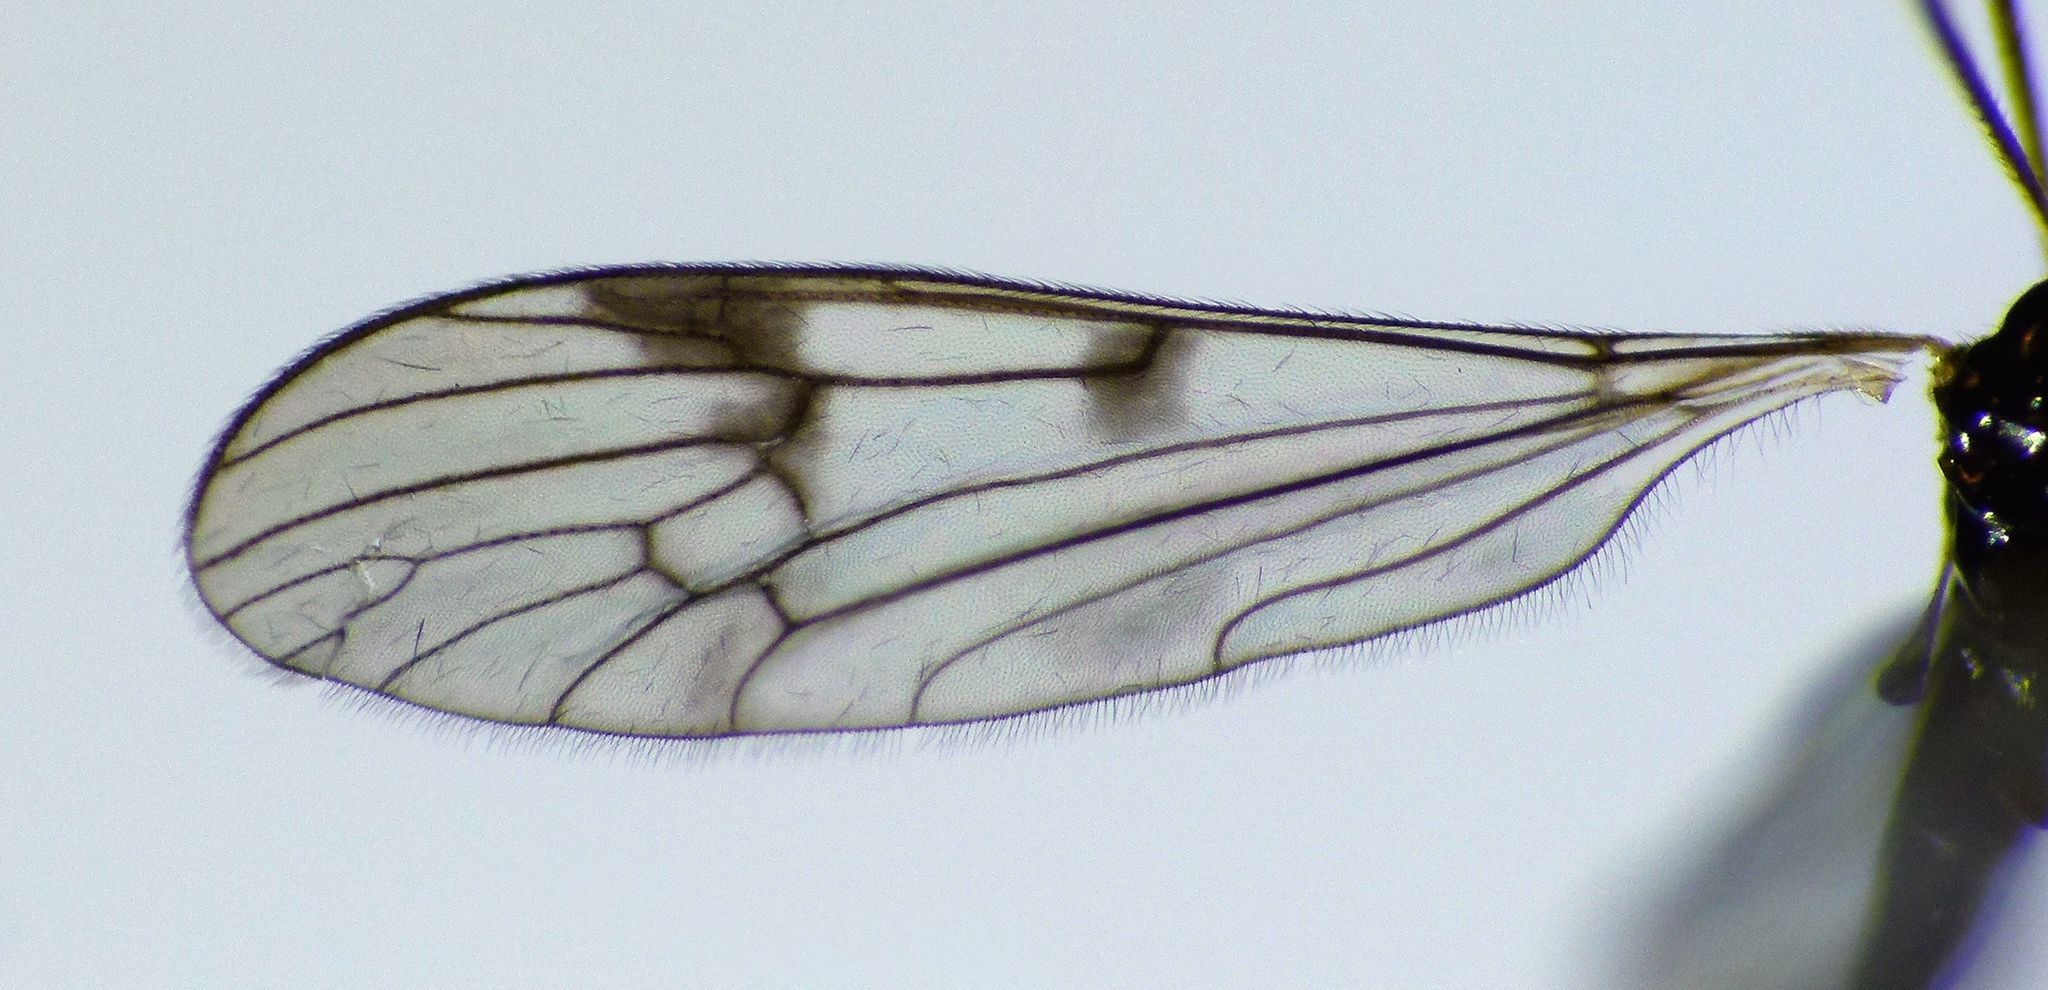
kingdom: Animalia
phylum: Arthropoda
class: Insecta
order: Diptera
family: Limoniidae
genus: Gynoplistia
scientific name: Gynoplistia pygmaea
